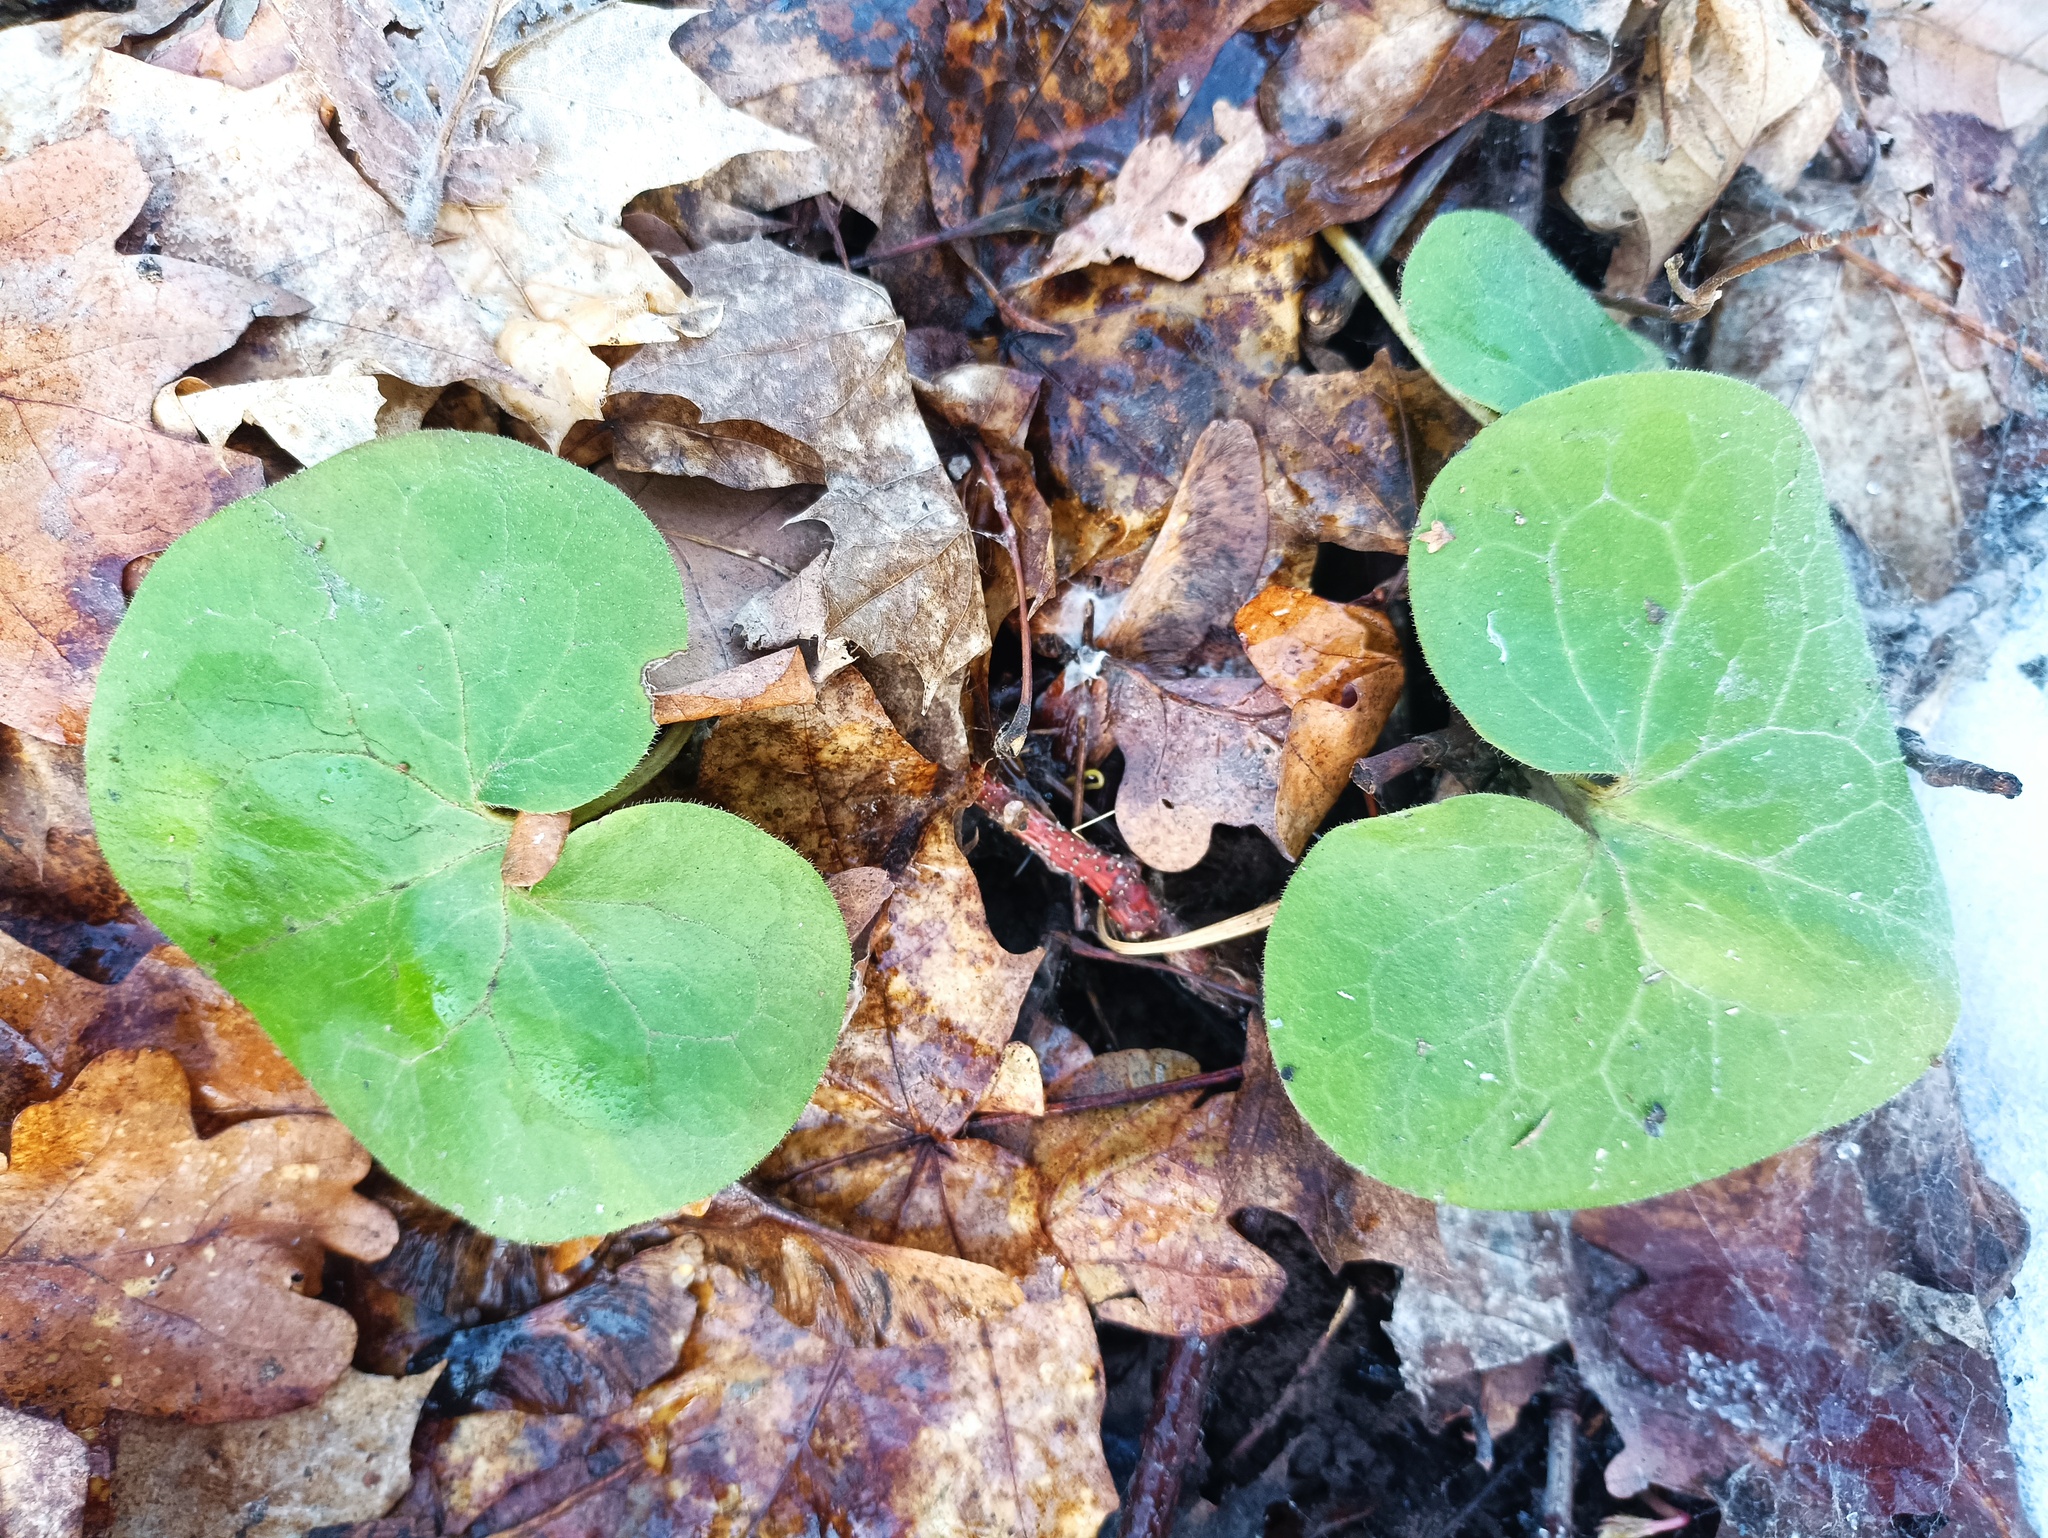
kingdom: Plantae
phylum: Tracheophyta
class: Magnoliopsida
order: Piperales
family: Aristolochiaceae
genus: Asarum
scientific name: Asarum europaeum
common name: Asarabacca
